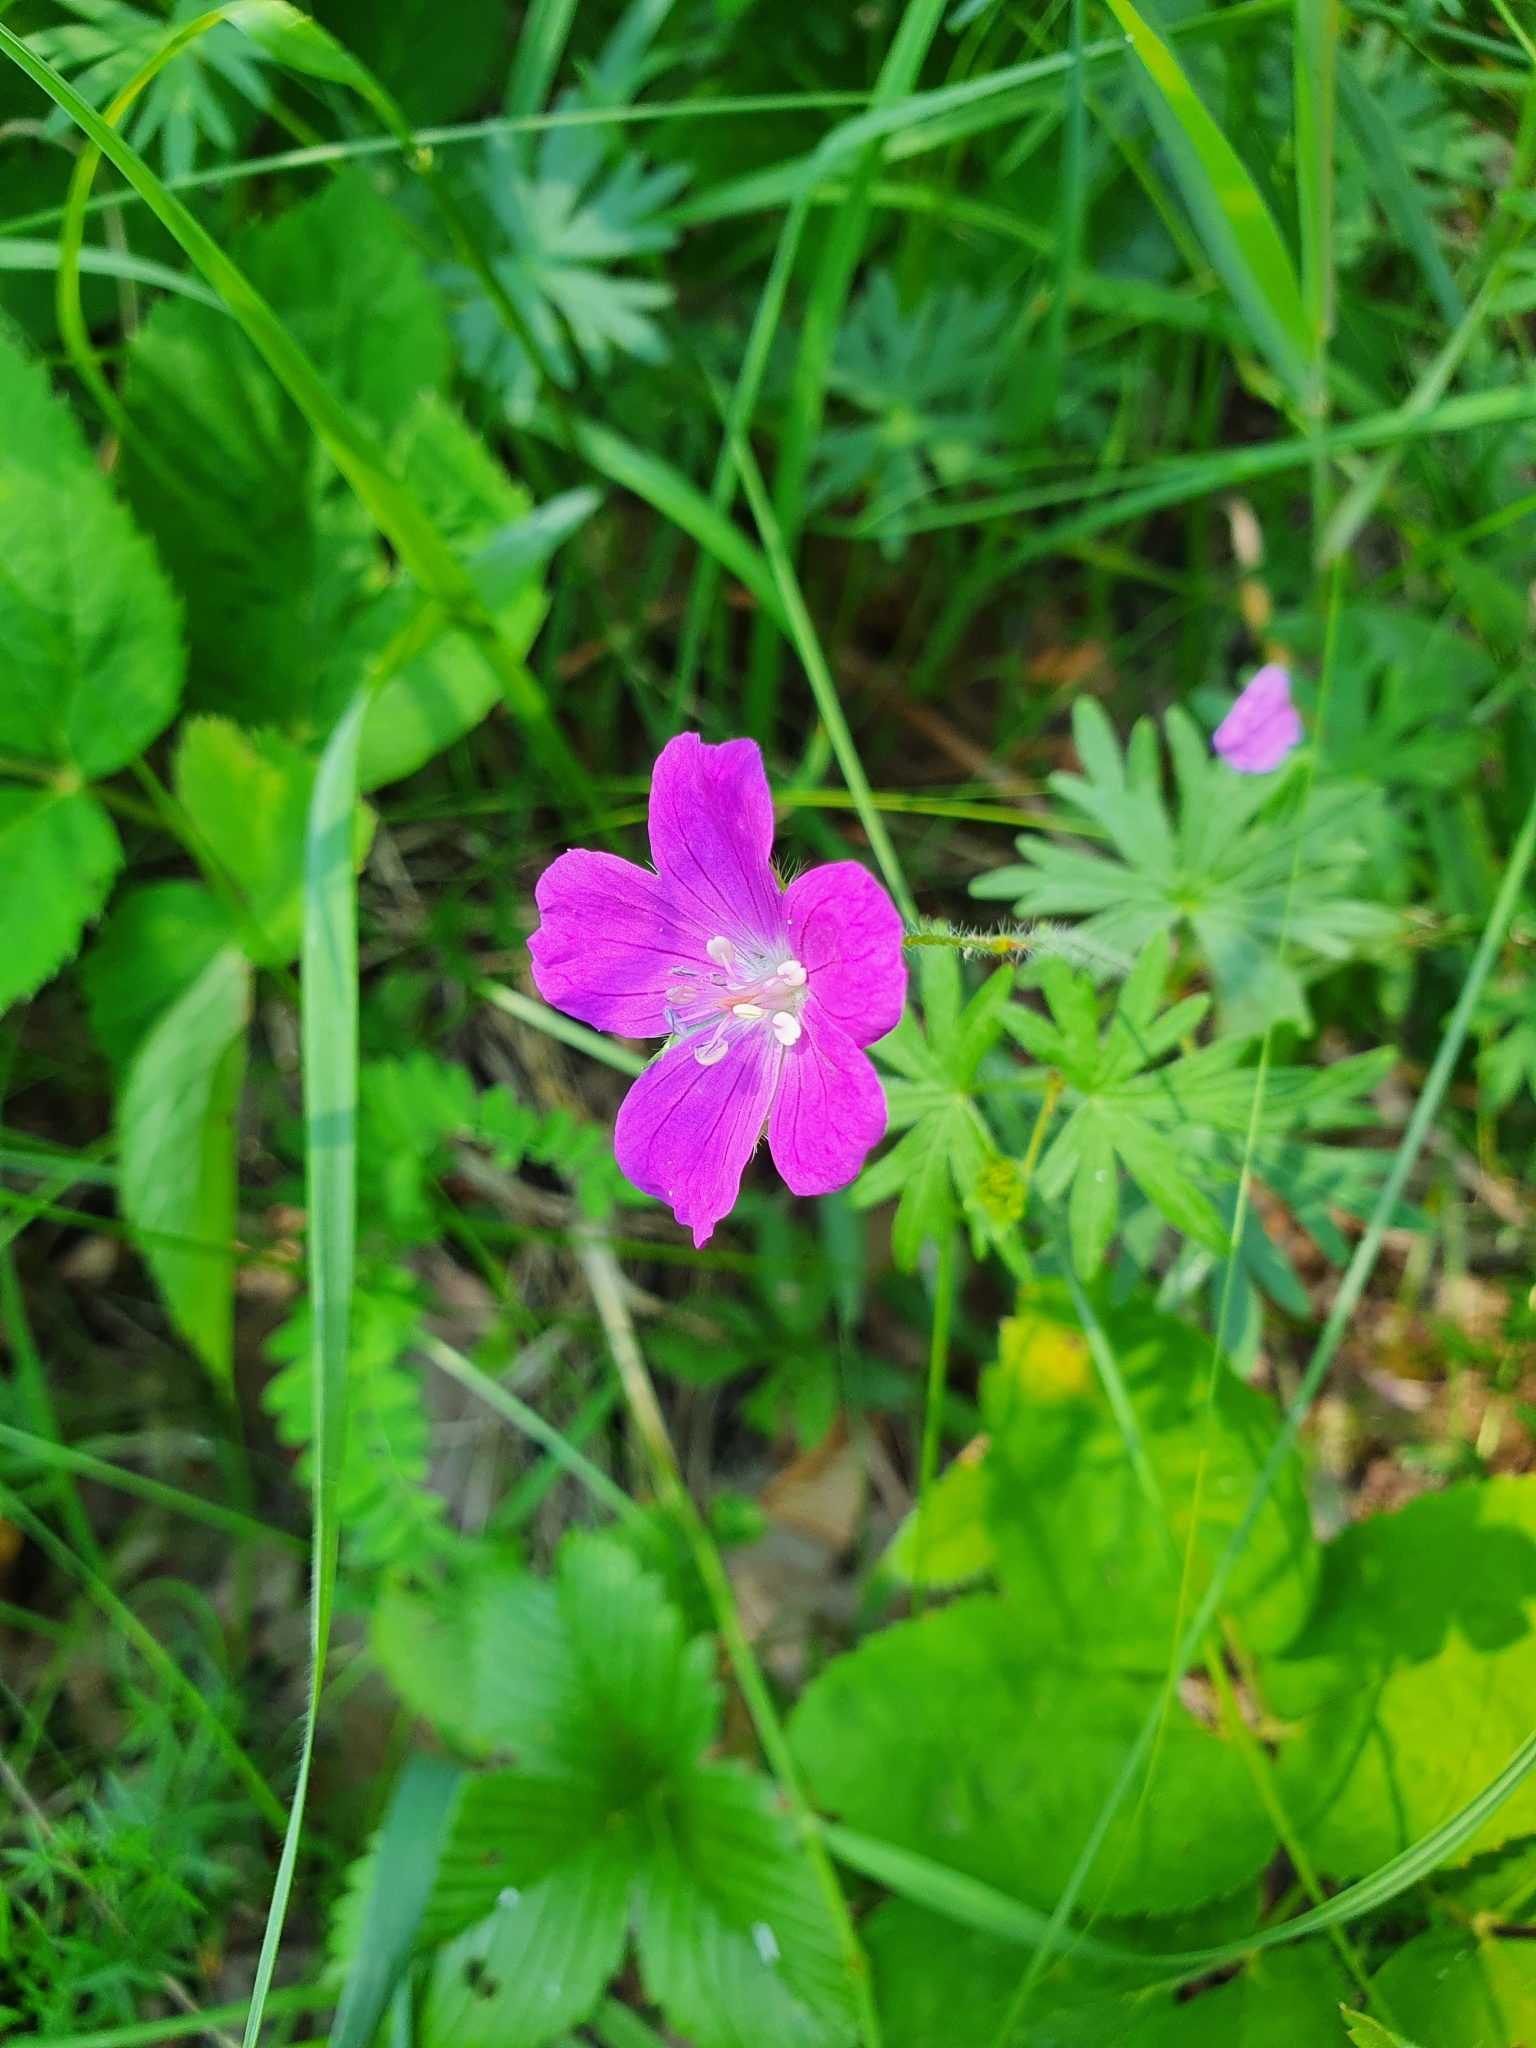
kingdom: Plantae
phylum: Tracheophyta
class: Magnoliopsida
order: Geraniales
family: Geraniaceae
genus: Geranium
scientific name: Geranium sanguineum
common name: Bloody crane's-bill
